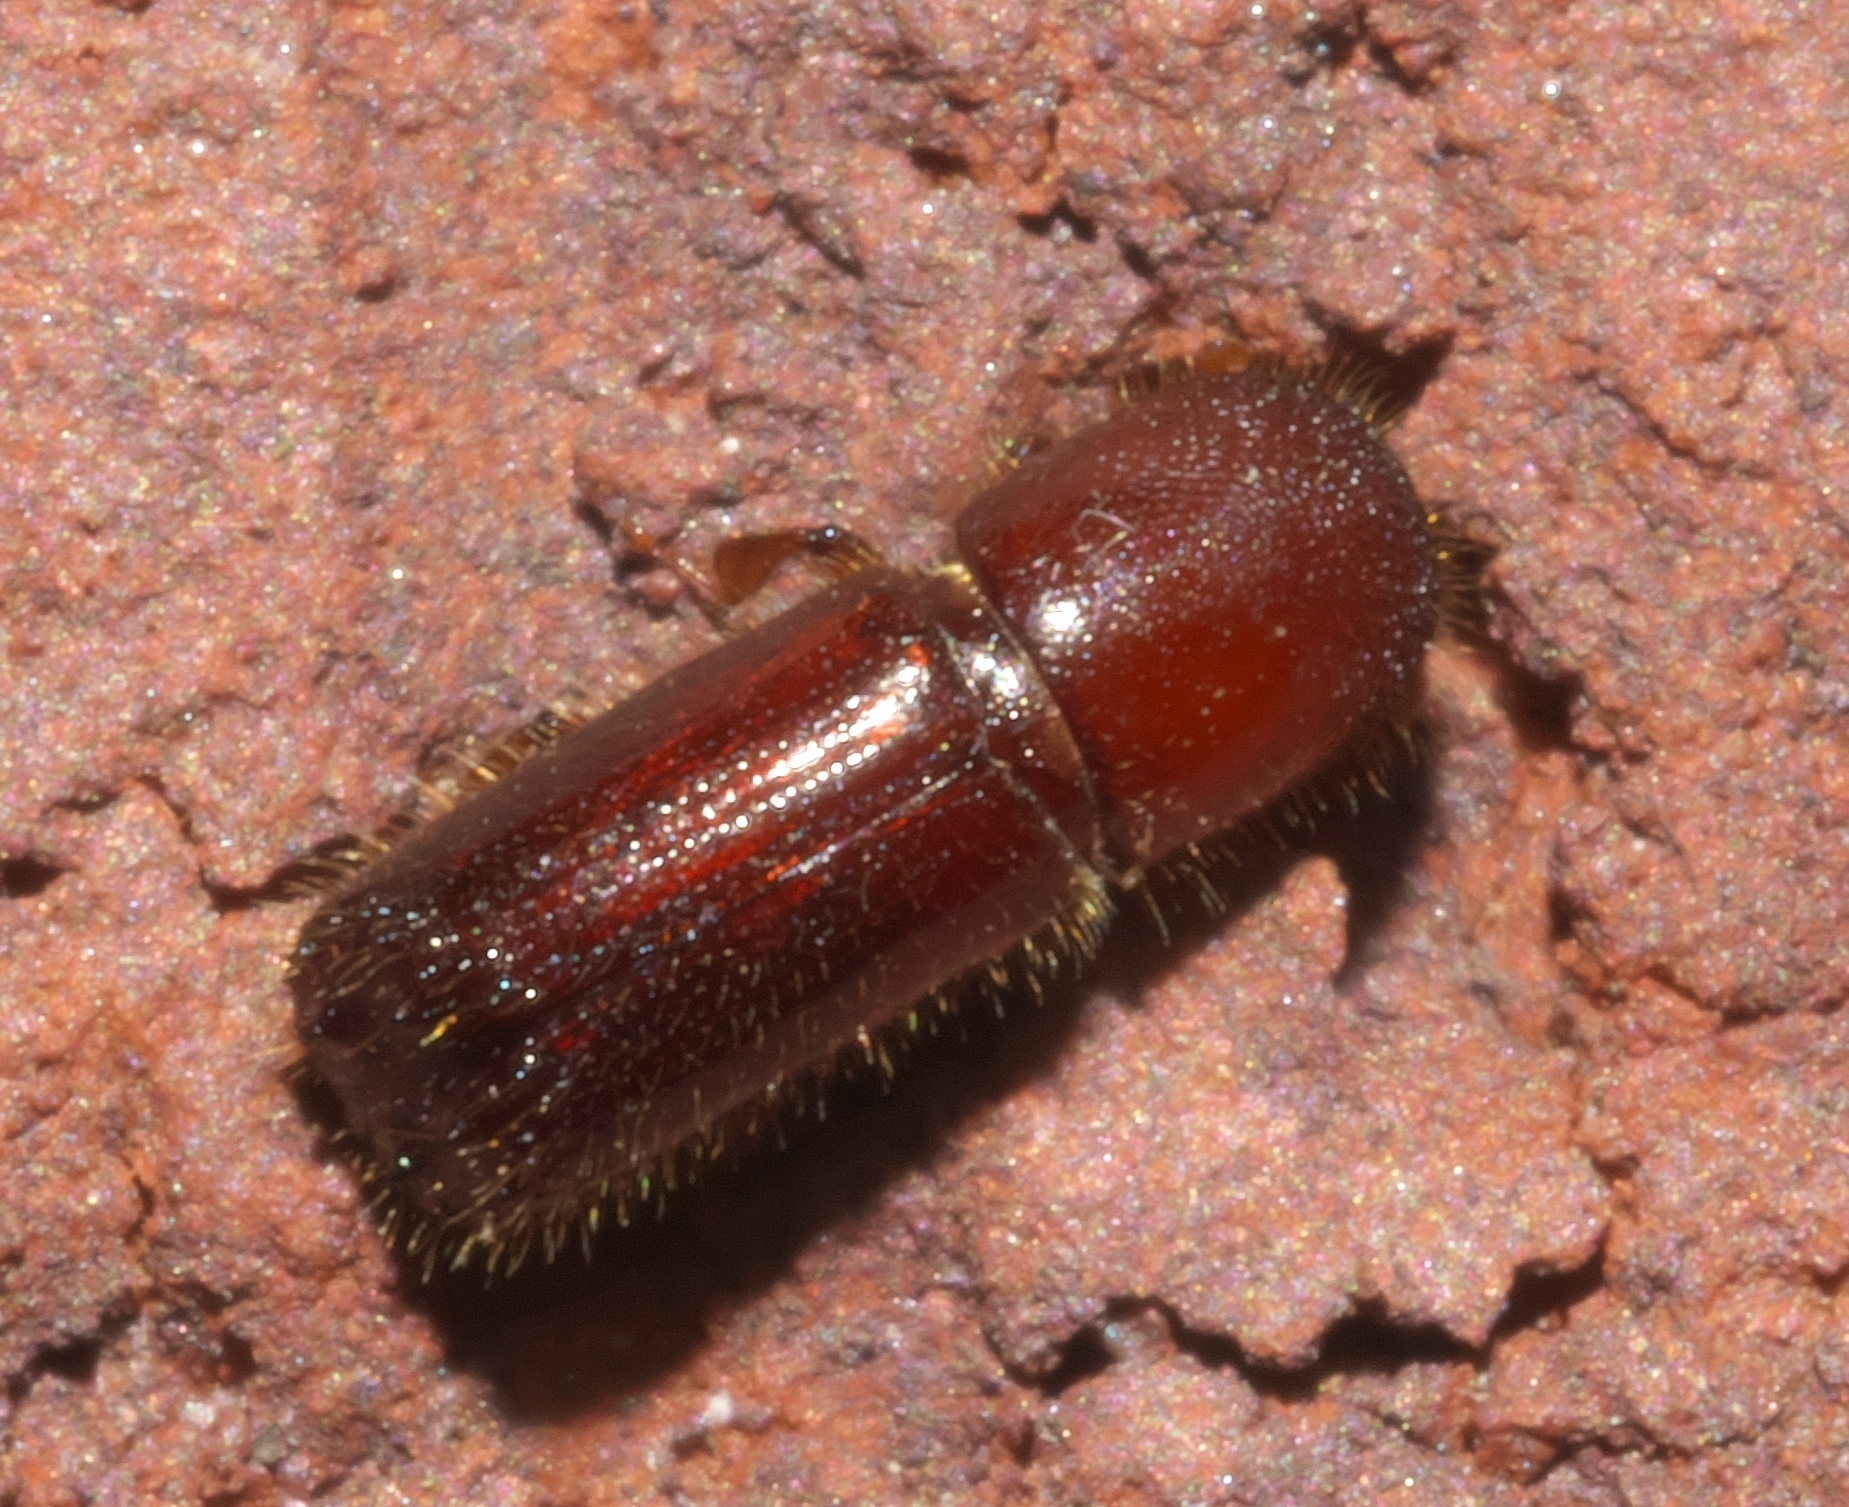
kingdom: Animalia
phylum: Arthropoda
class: Insecta
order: Coleoptera
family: Curculionidae
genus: Xyleborus
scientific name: Xyleborus celsus
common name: Weevil
